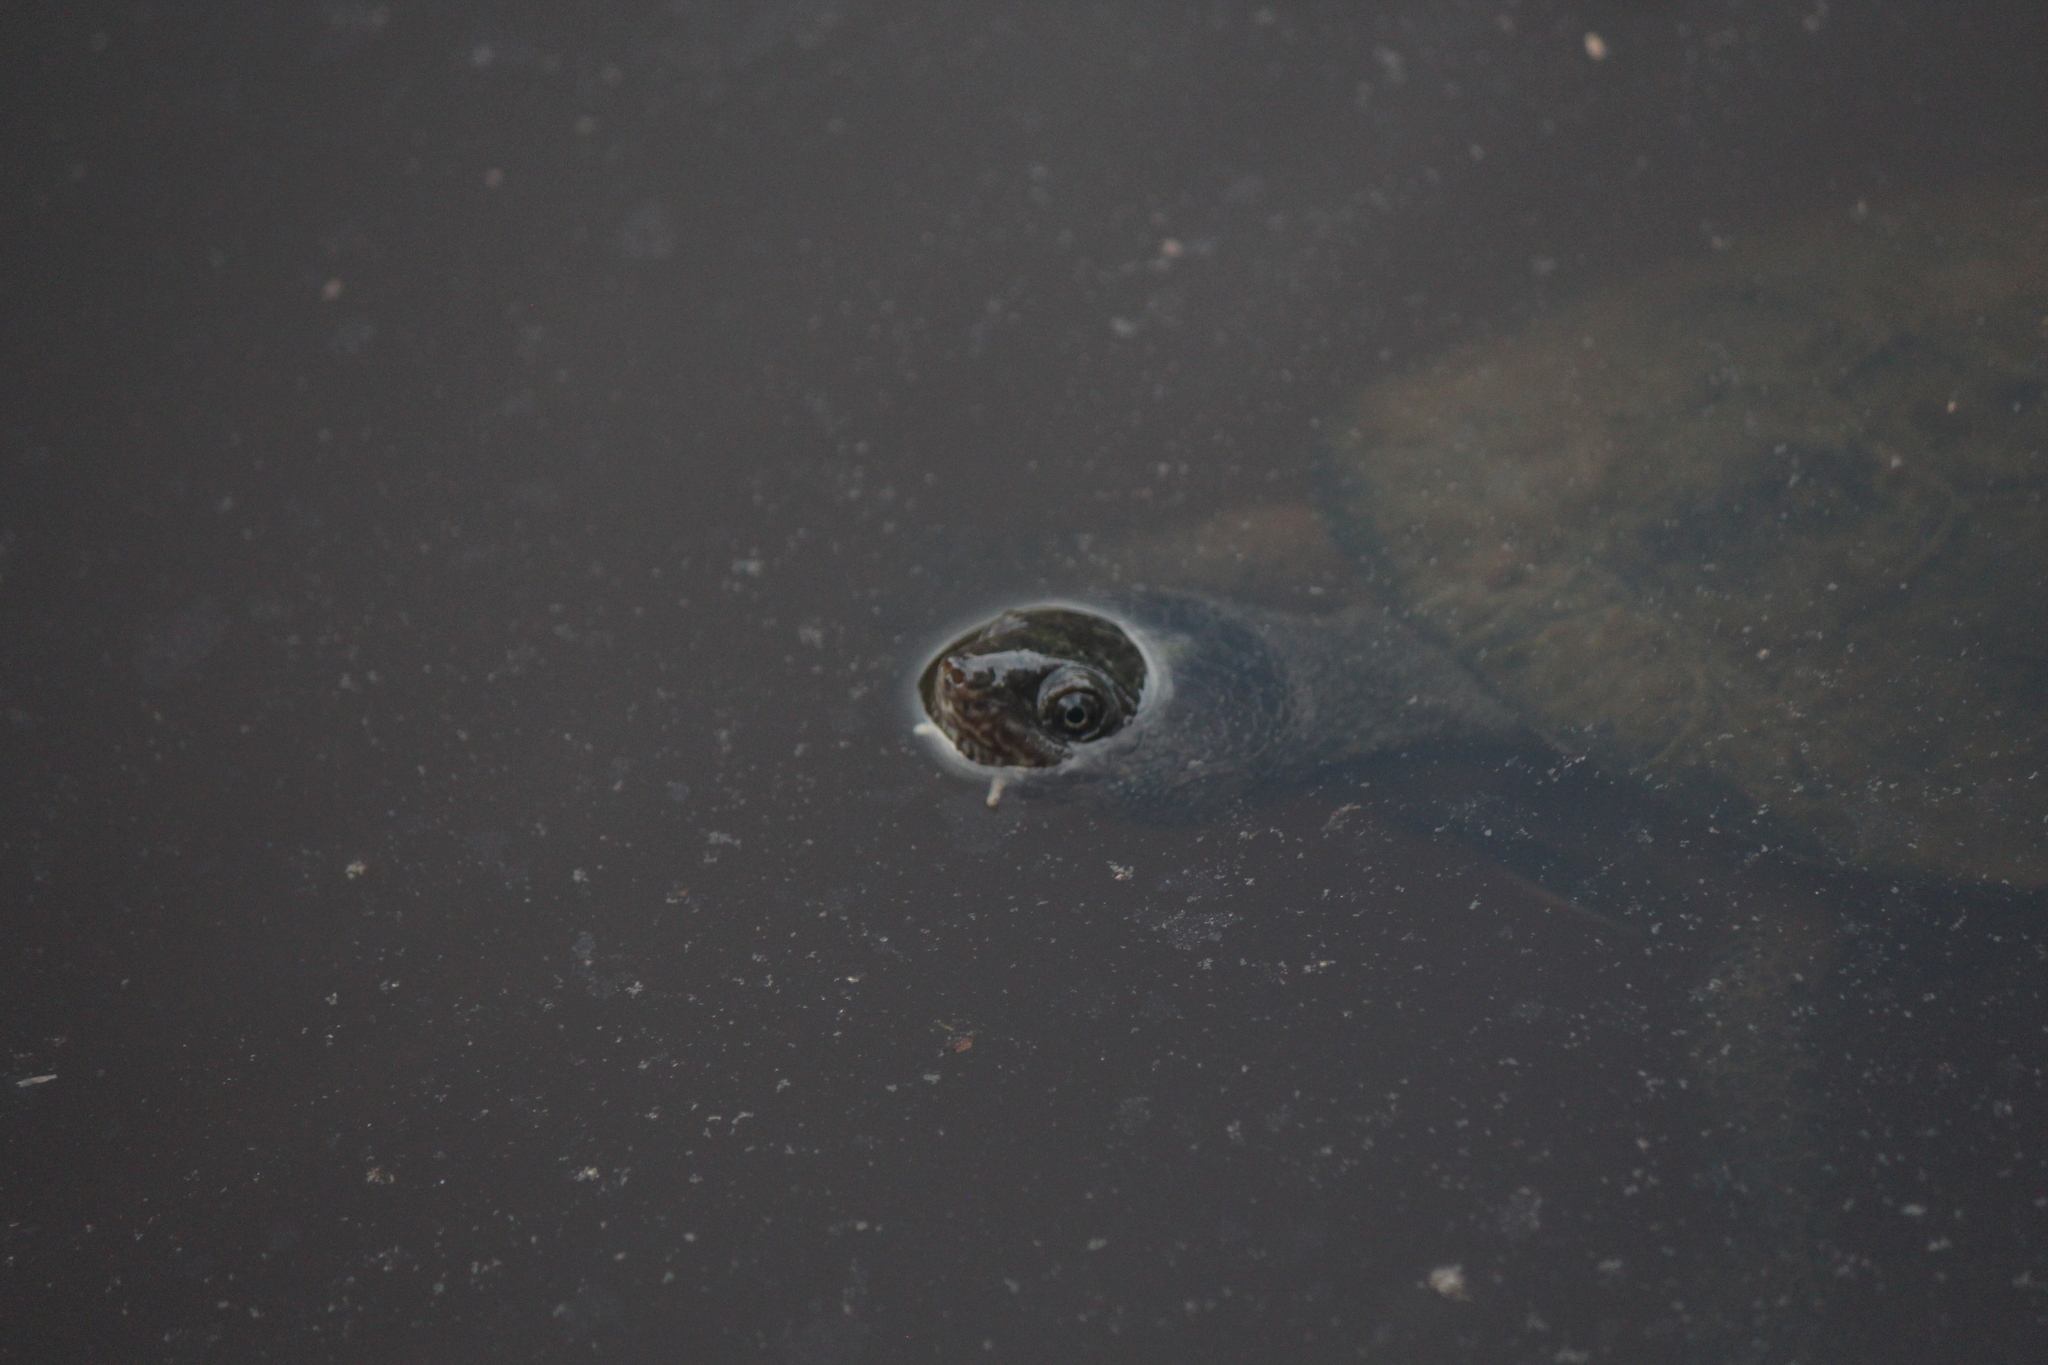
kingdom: Animalia
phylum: Chordata
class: Testudines
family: Chelidae
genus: Mesoclemmys
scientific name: Mesoclemmys gibba
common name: Gibba turtle
